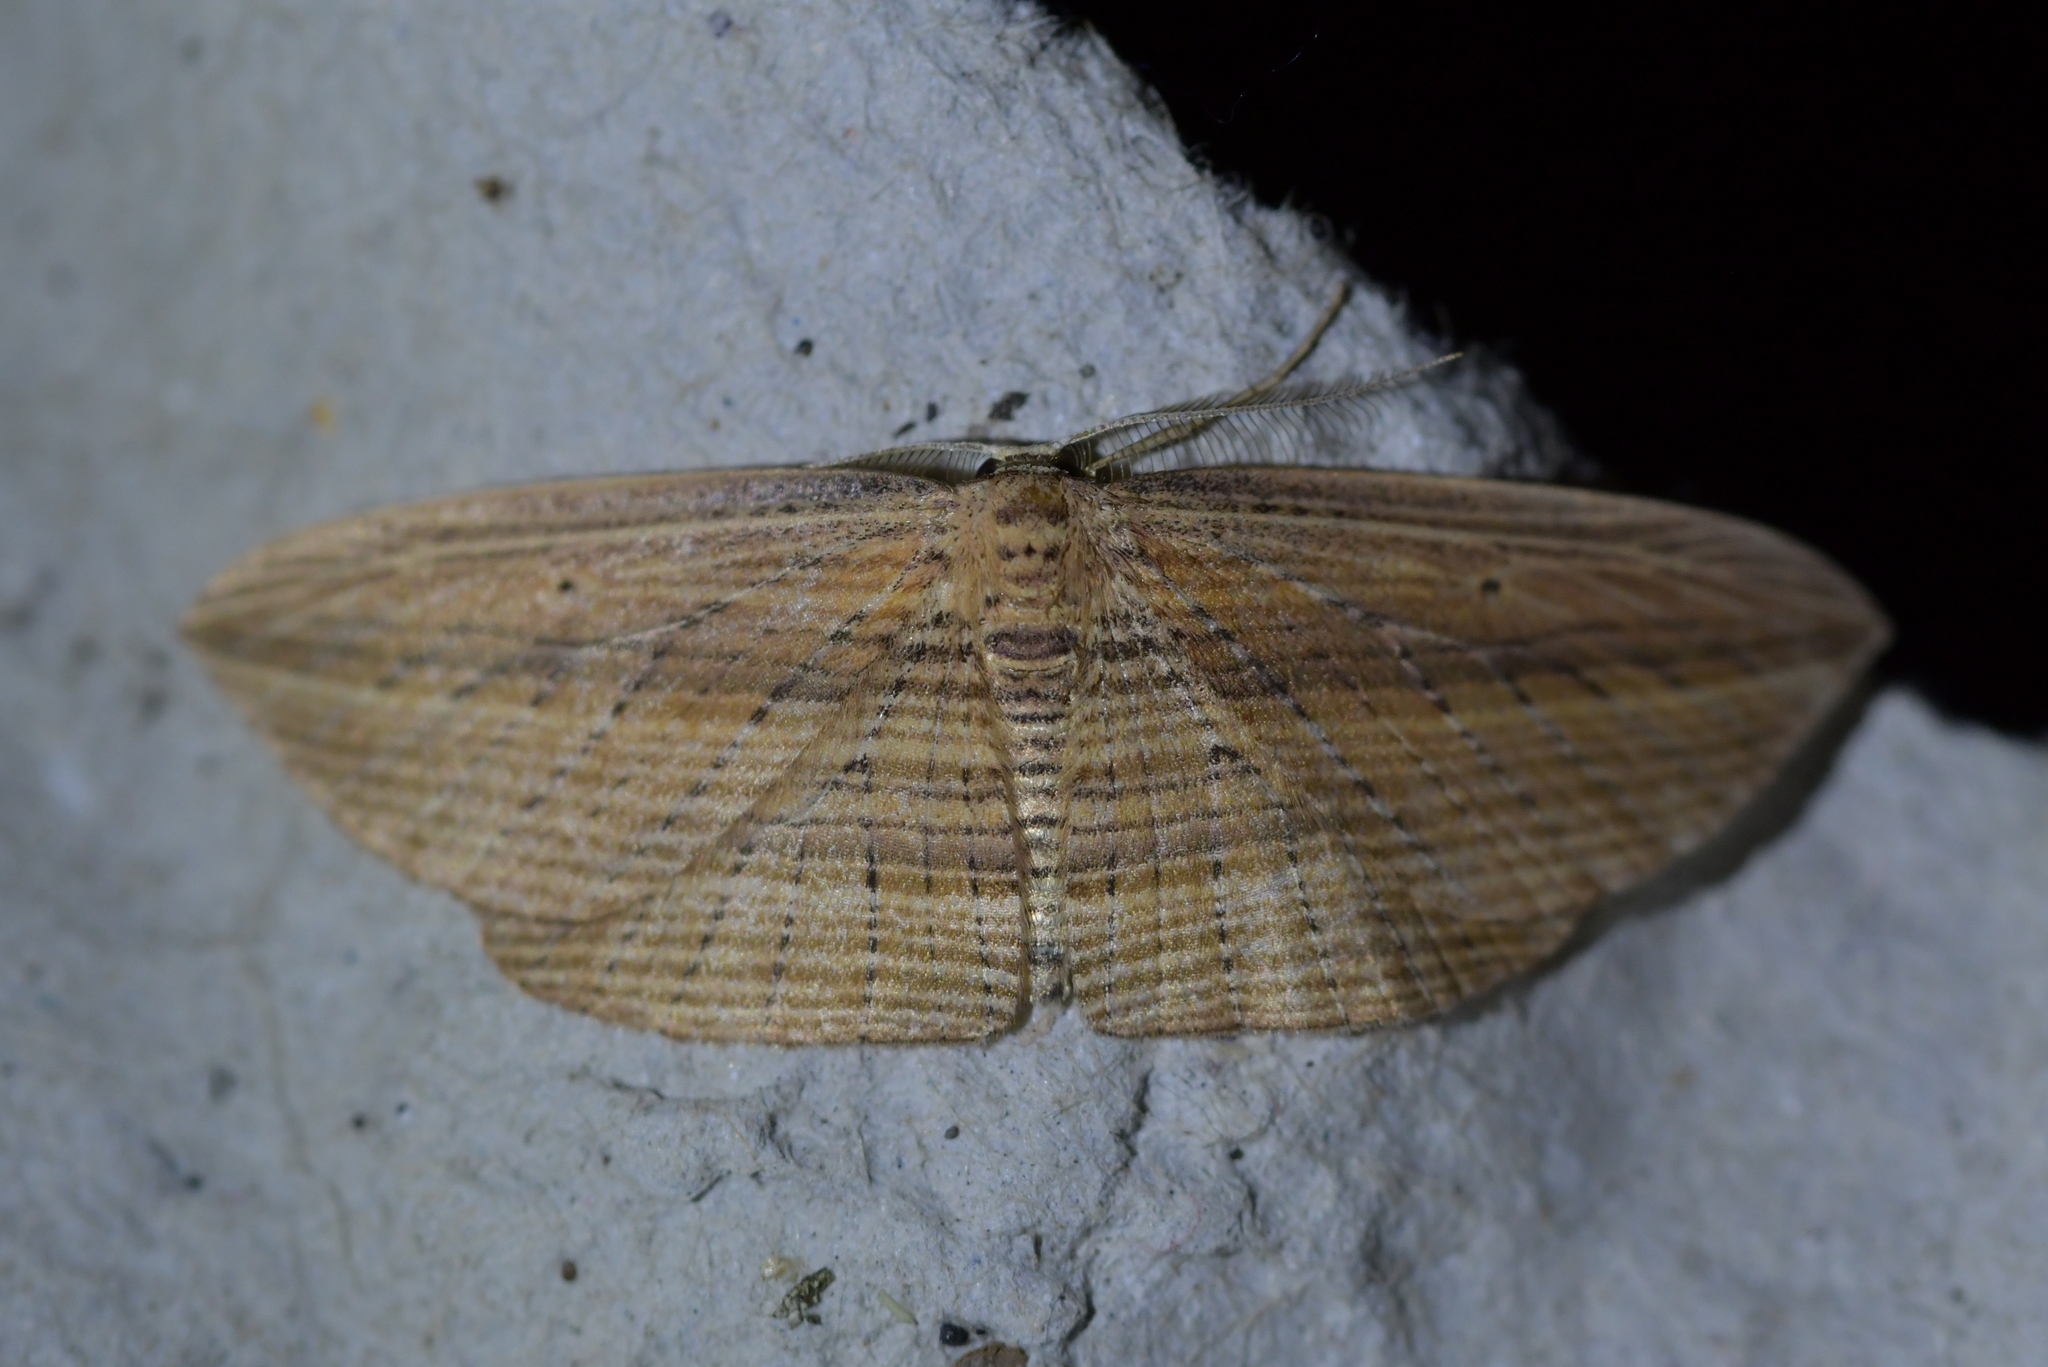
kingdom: Animalia
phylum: Arthropoda
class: Insecta
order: Lepidoptera
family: Geometridae
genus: Epiphryne
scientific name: Epiphryne verriculata
